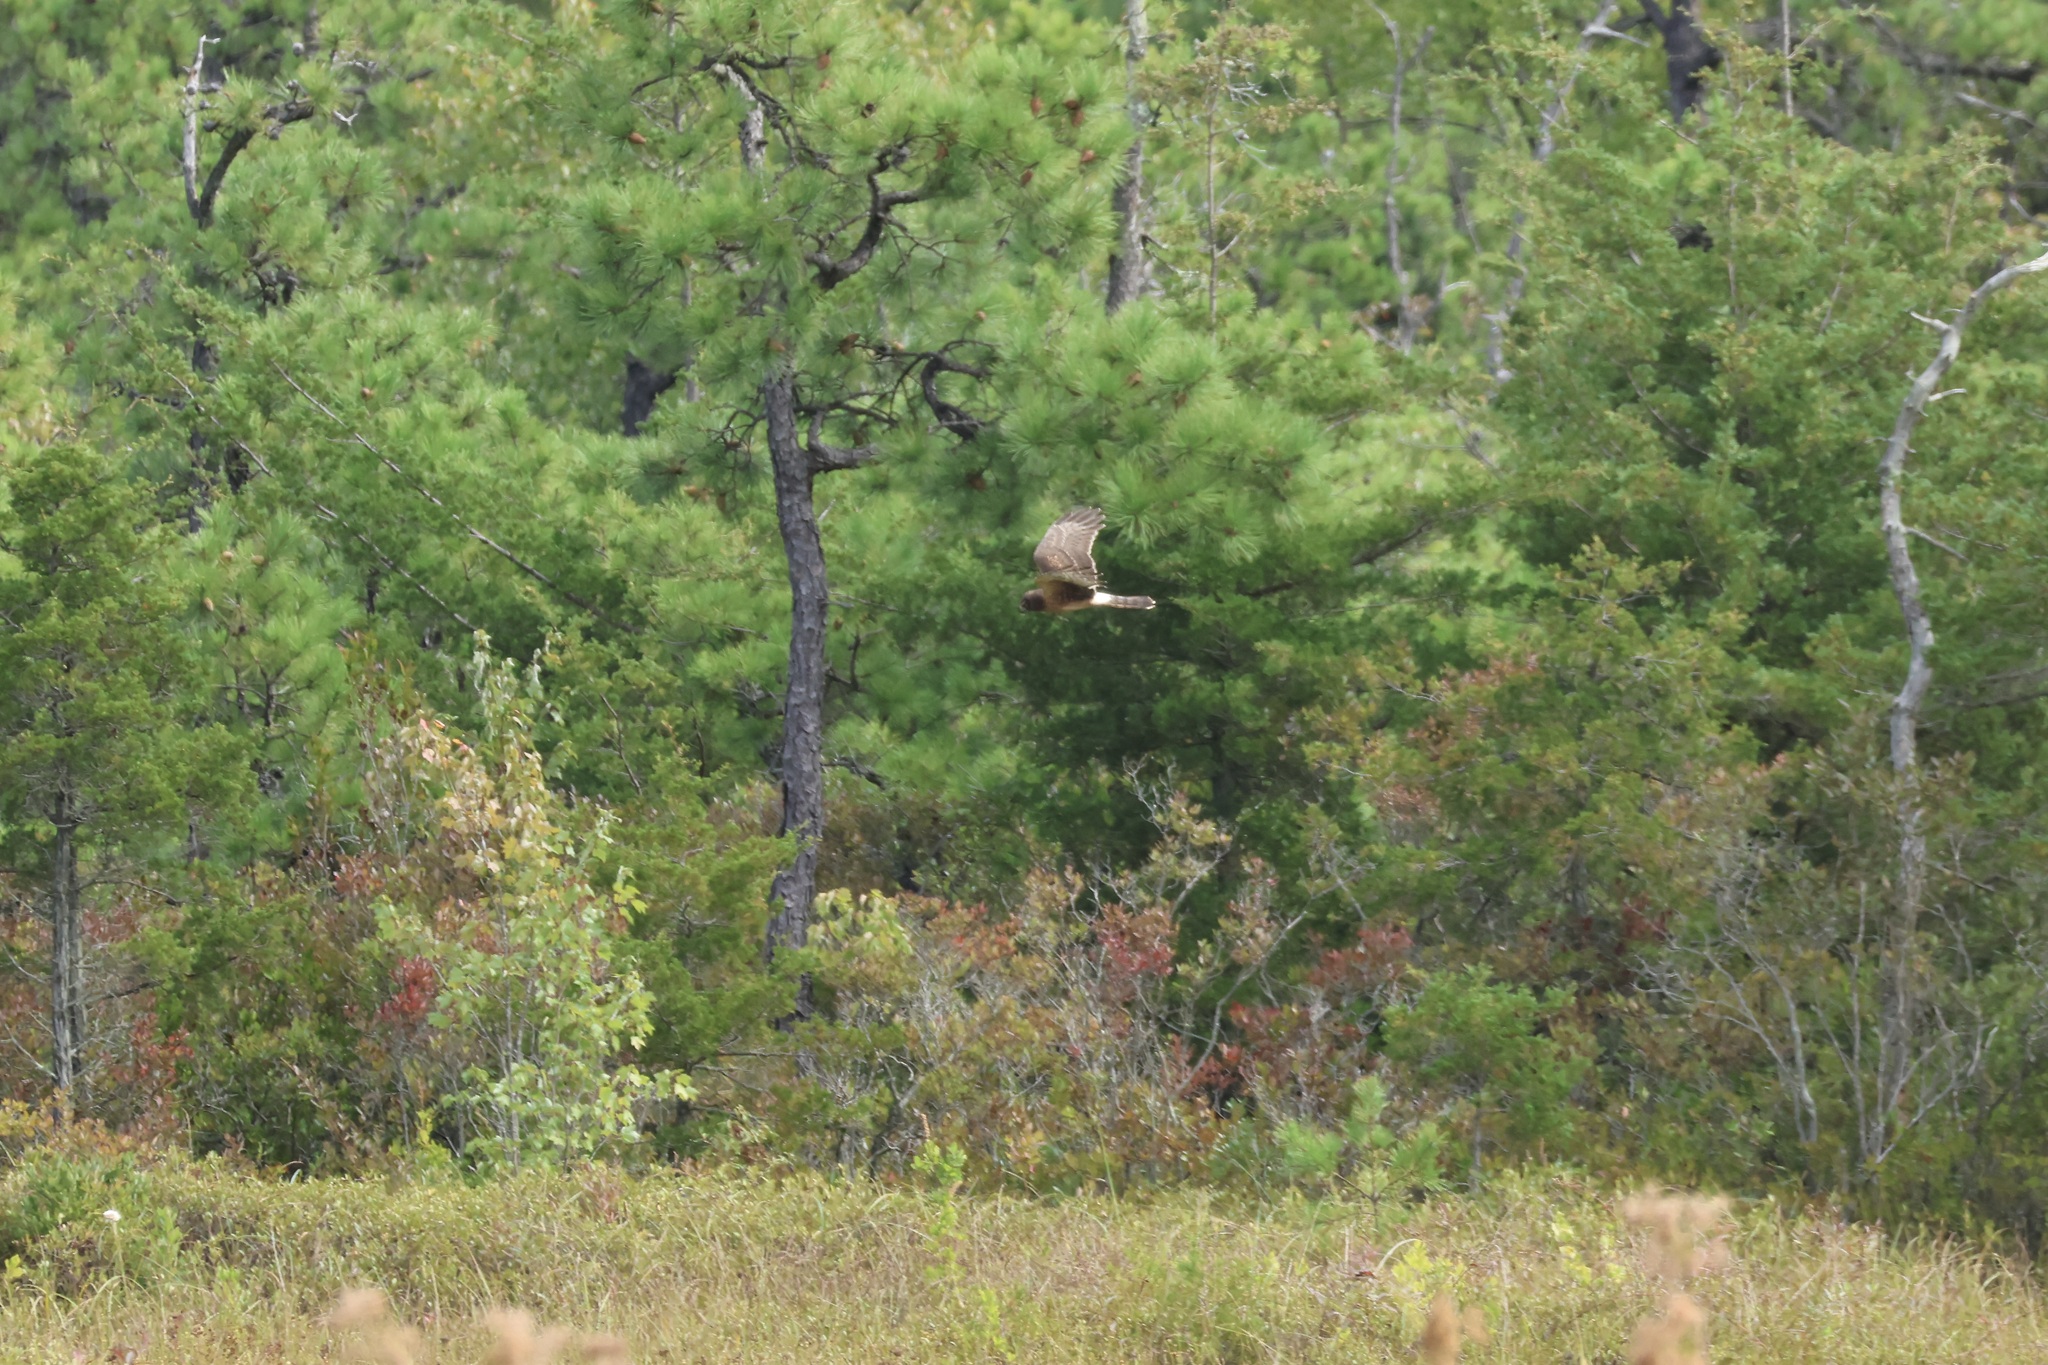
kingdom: Animalia
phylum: Chordata
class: Aves
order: Accipitriformes
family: Accipitridae
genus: Circus
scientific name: Circus cyaneus
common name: Hen harrier
